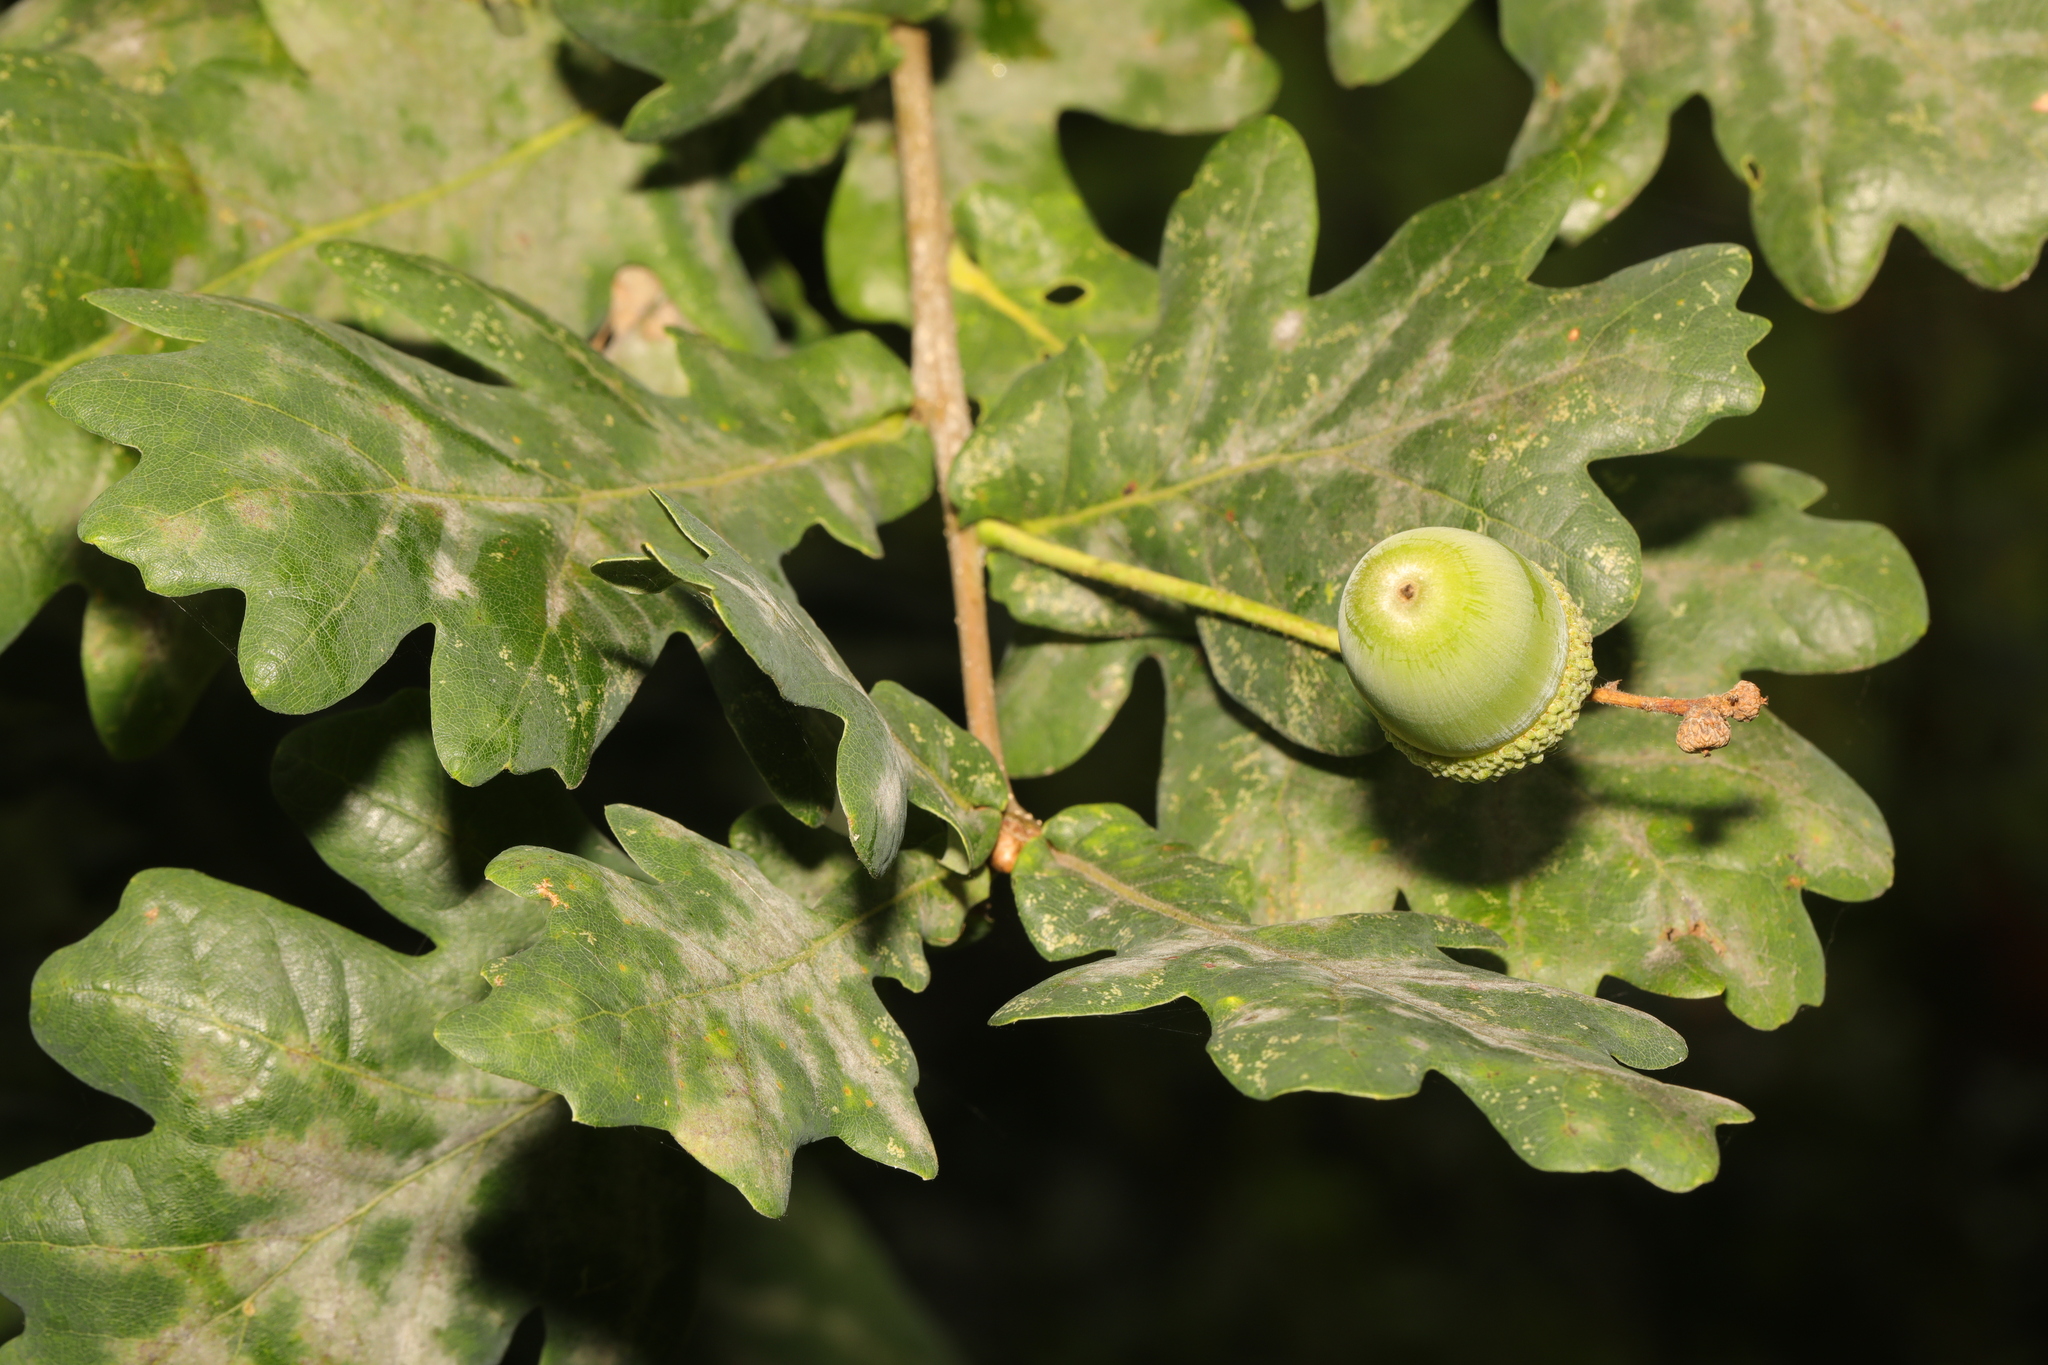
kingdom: Plantae
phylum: Tracheophyta
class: Magnoliopsida
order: Fagales
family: Fagaceae
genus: Quercus
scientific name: Quercus robur
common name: Pedunculate oak
